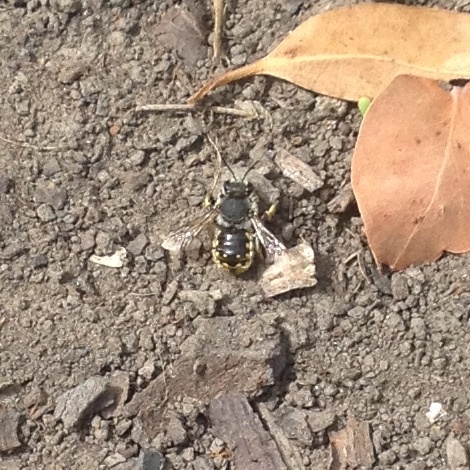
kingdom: Animalia
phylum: Arthropoda
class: Insecta
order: Hymenoptera
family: Megachilidae
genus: Anthidium
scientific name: Anthidium manicatum
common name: Wool carder bee
